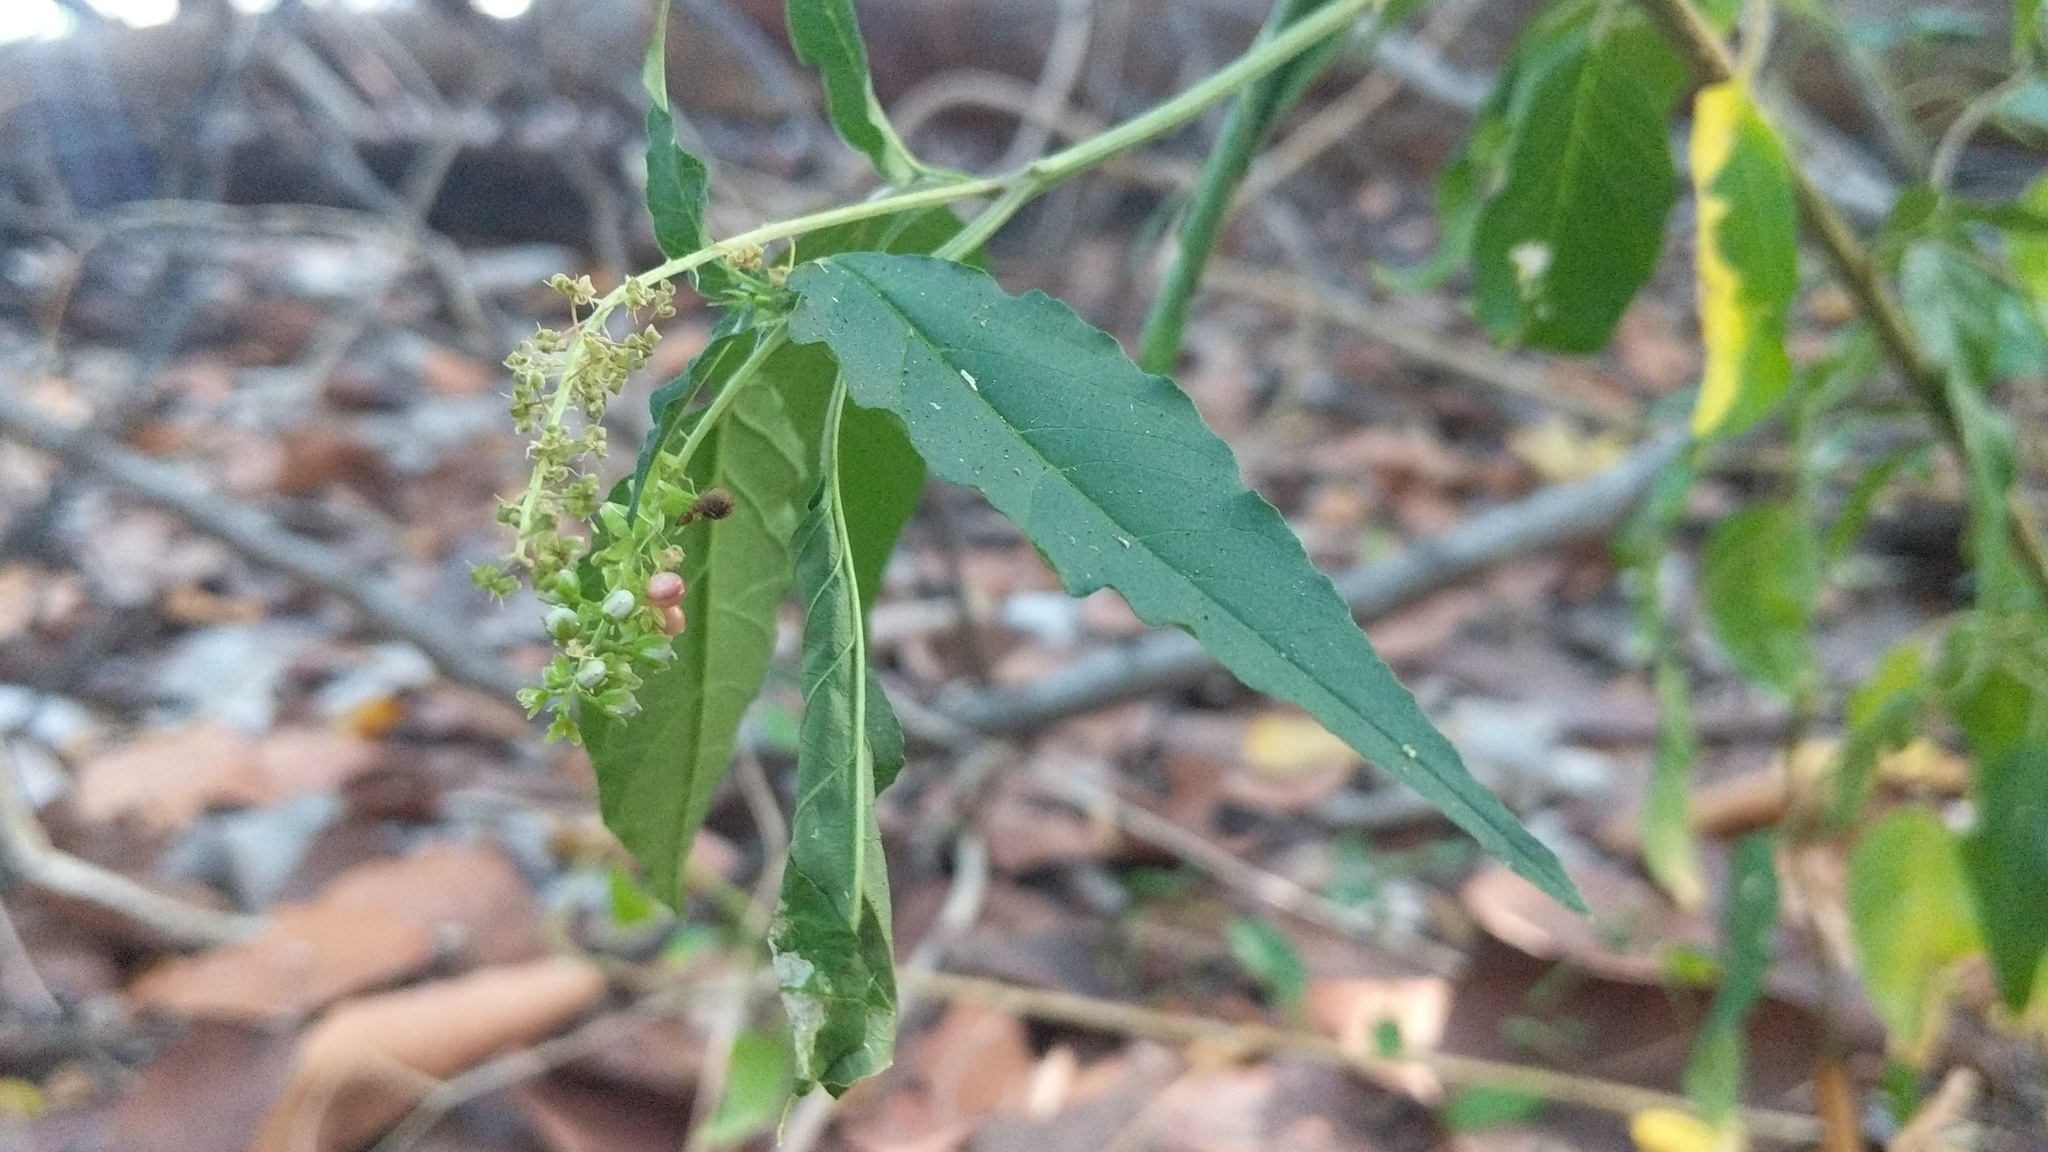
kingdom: Plantae
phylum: Tracheophyta
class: Magnoliopsida
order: Caryophyllales
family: Phytolaccaceae
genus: Rivina
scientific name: Rivina humilis
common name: Rougeplant
